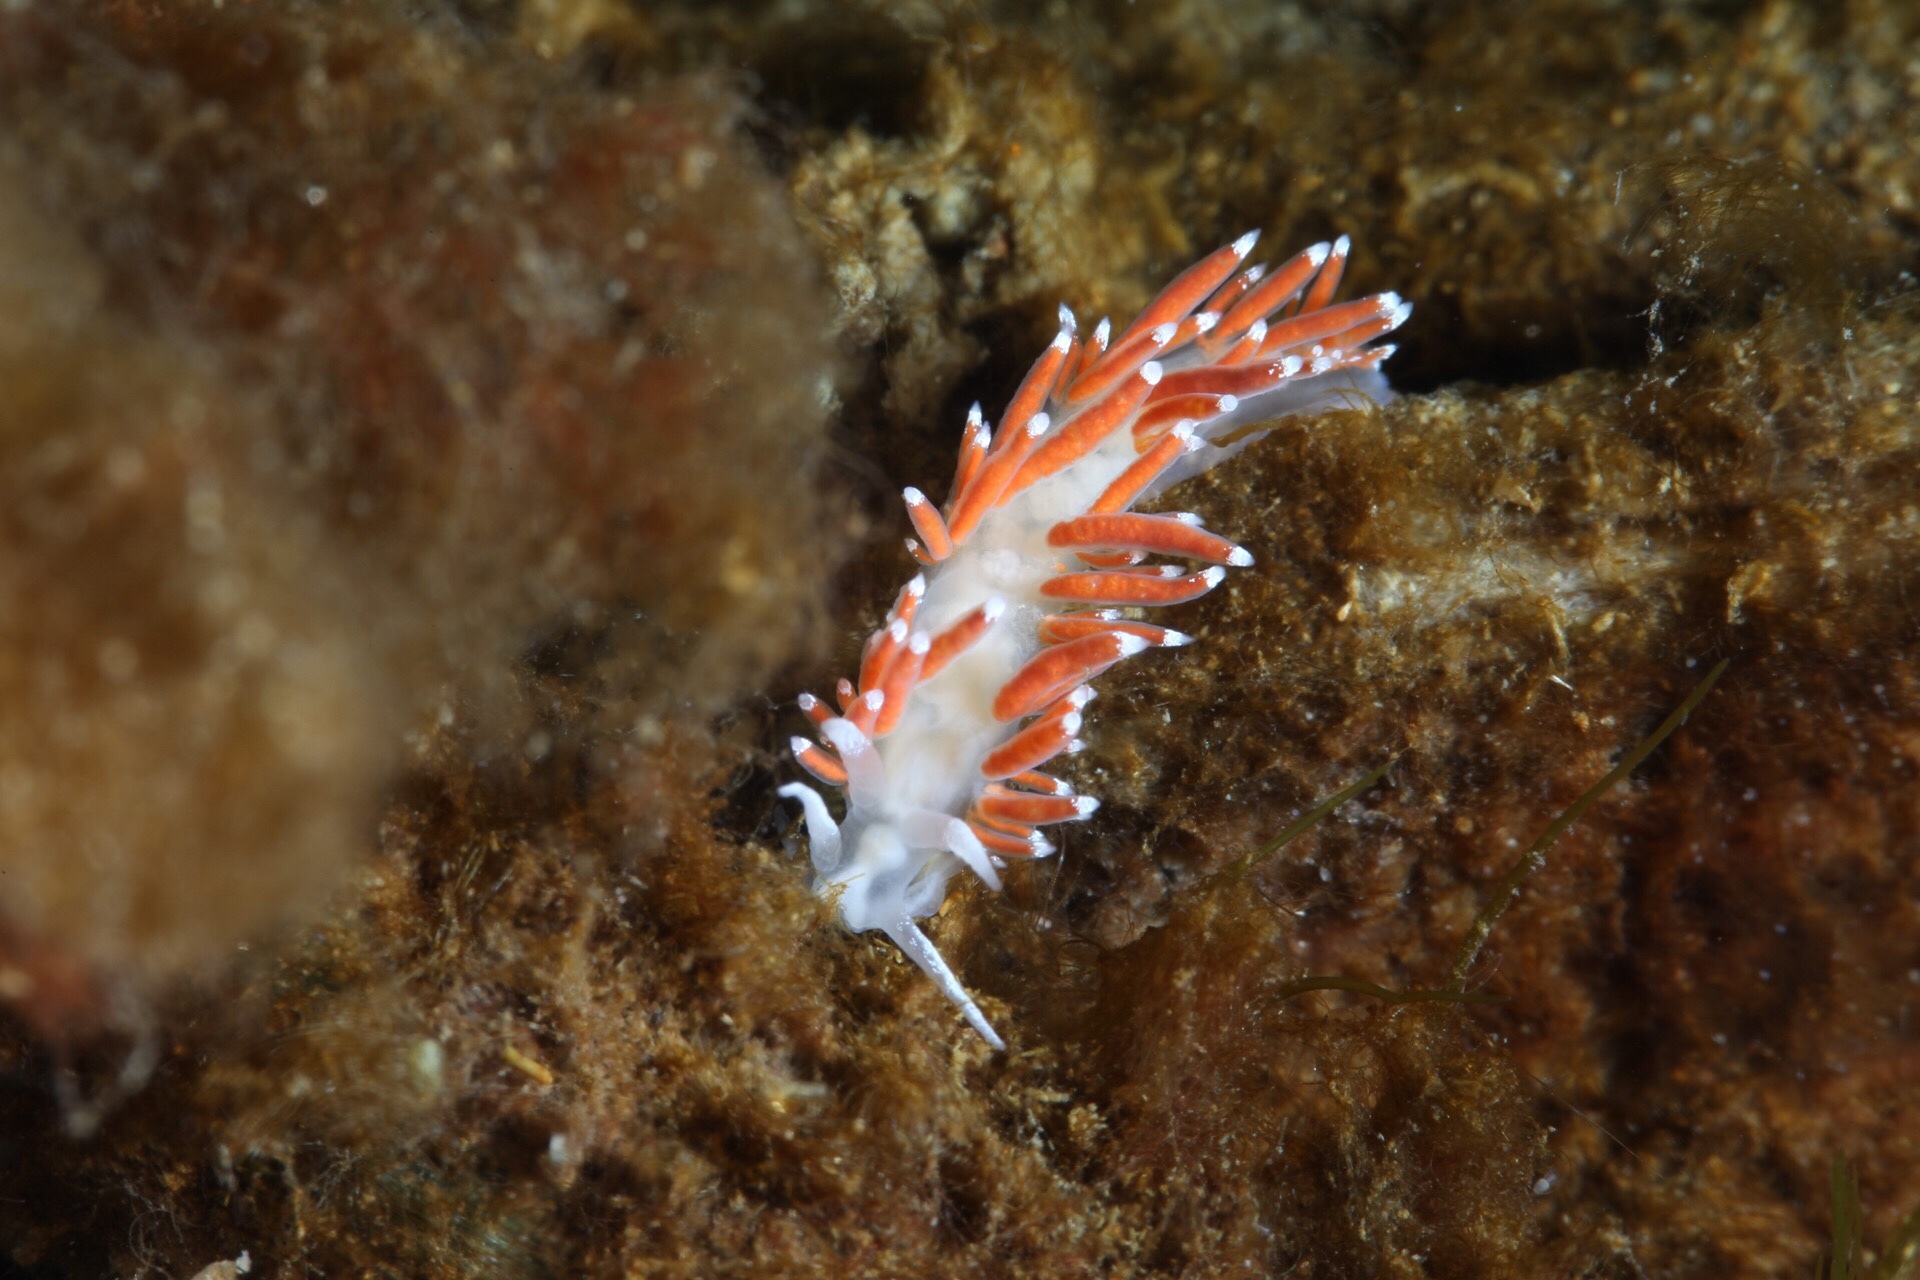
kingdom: Animalia
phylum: Mollusca
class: Gastropoda
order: Nudibranchia
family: Coryphellidae
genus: Coryphella
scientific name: Coryphella gracilis
